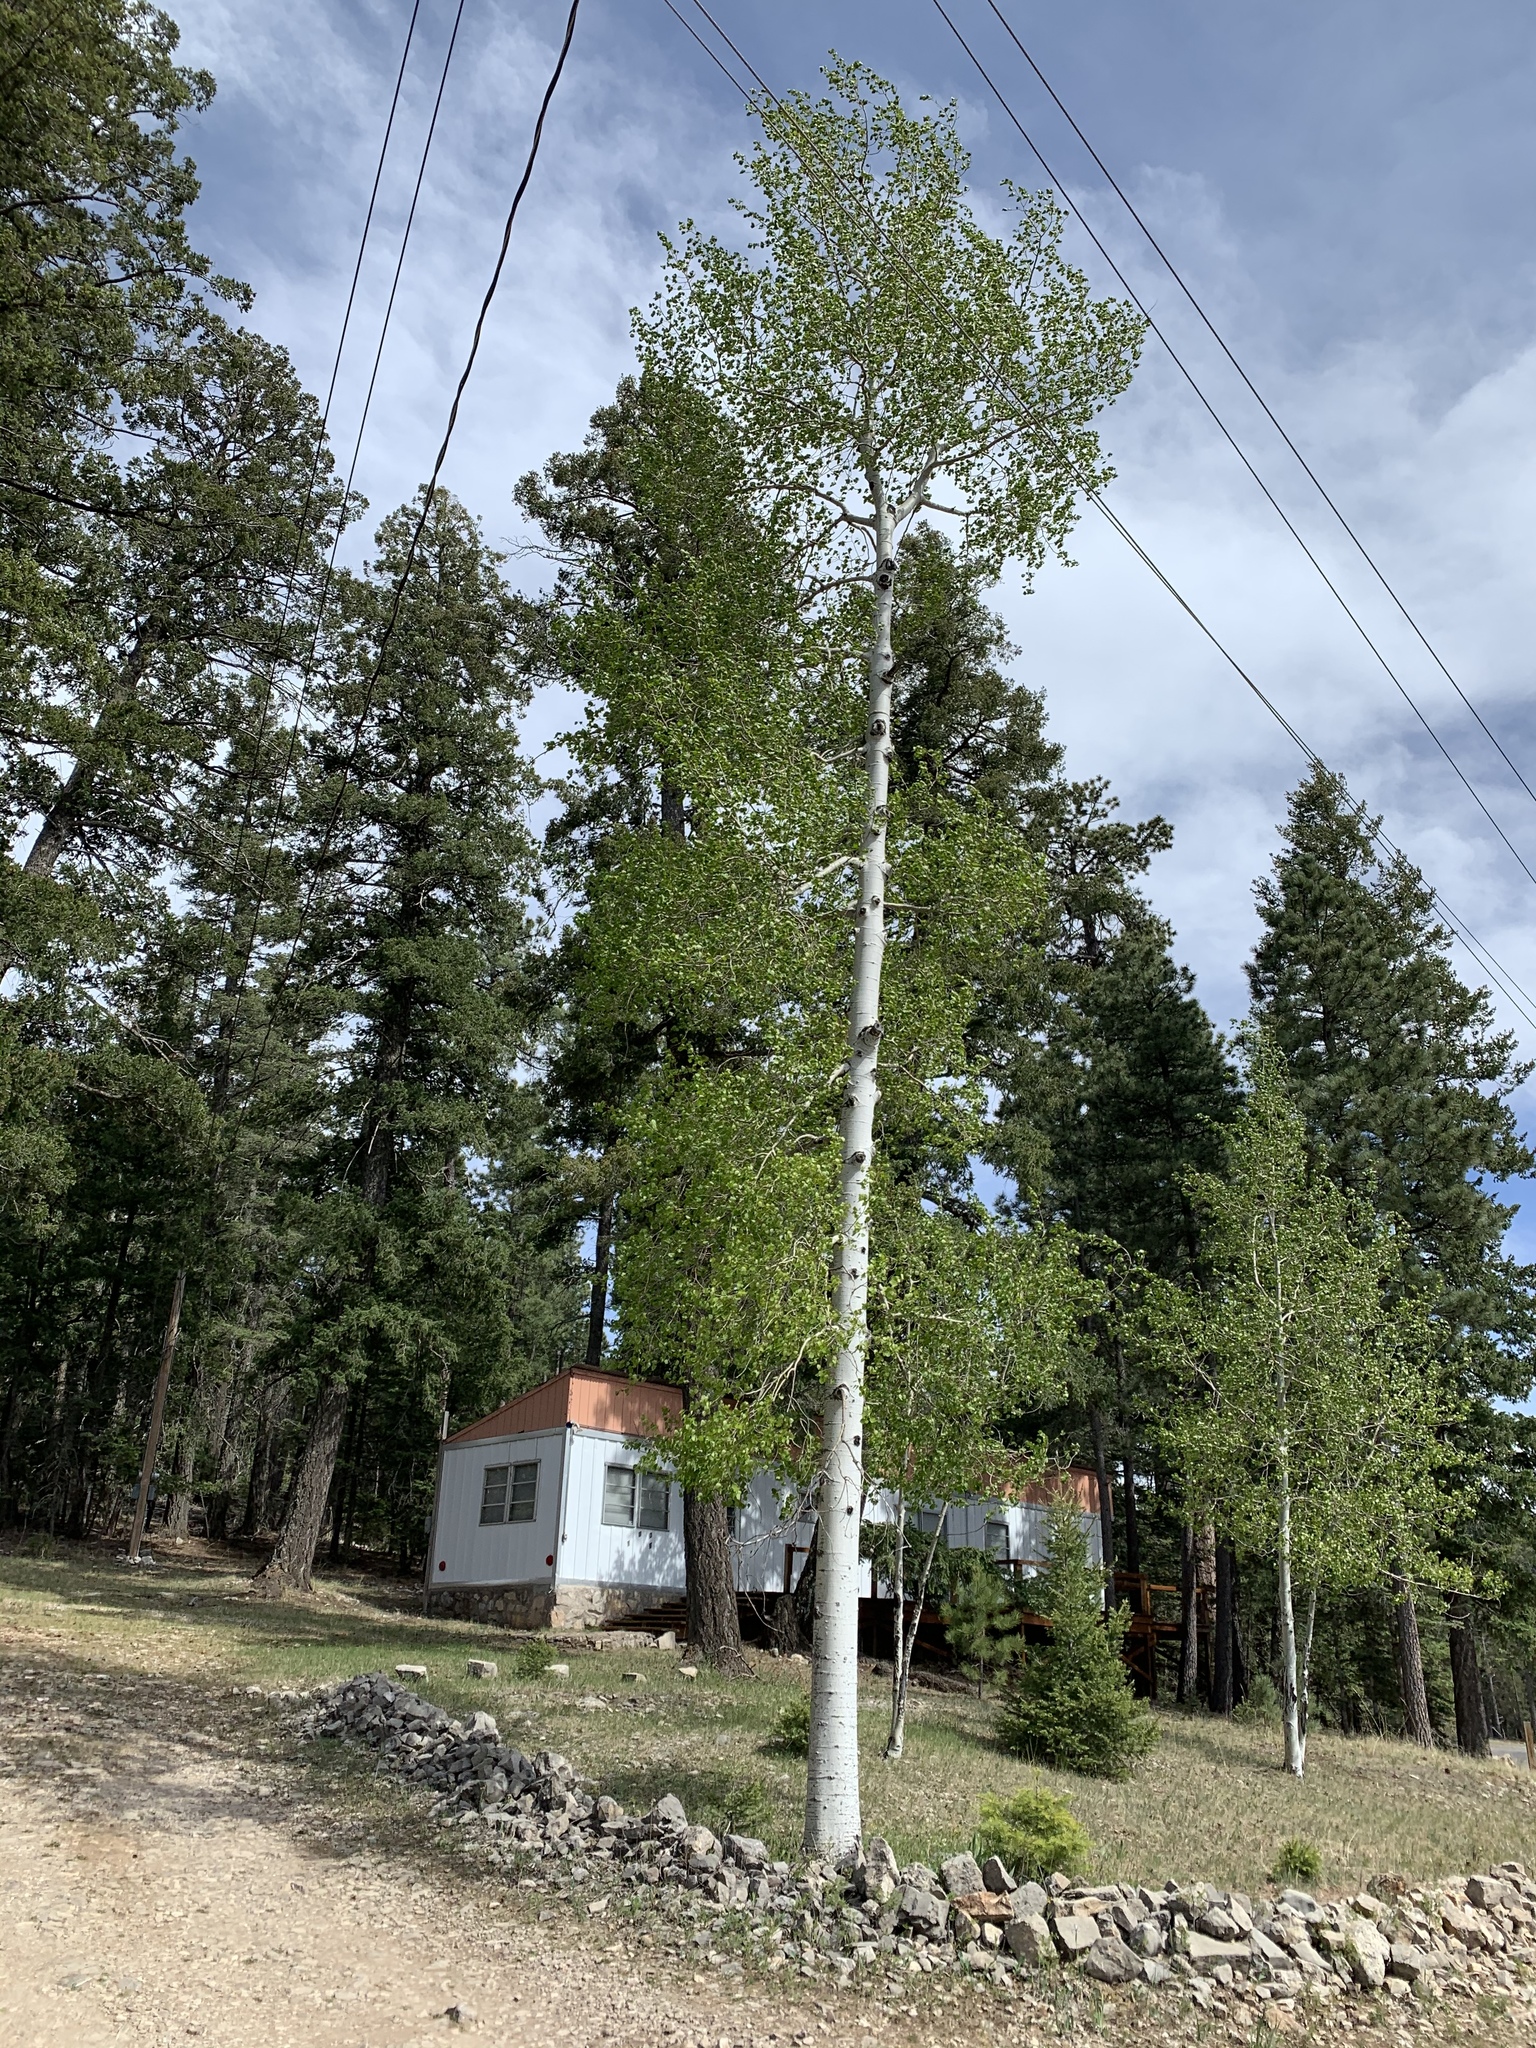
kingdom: Plantae
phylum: Tracheophyta
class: Magnoliopsida
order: Malpighiales
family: Salicaceae
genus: Populus
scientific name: Populus tremuloides
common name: Quaking aspen
